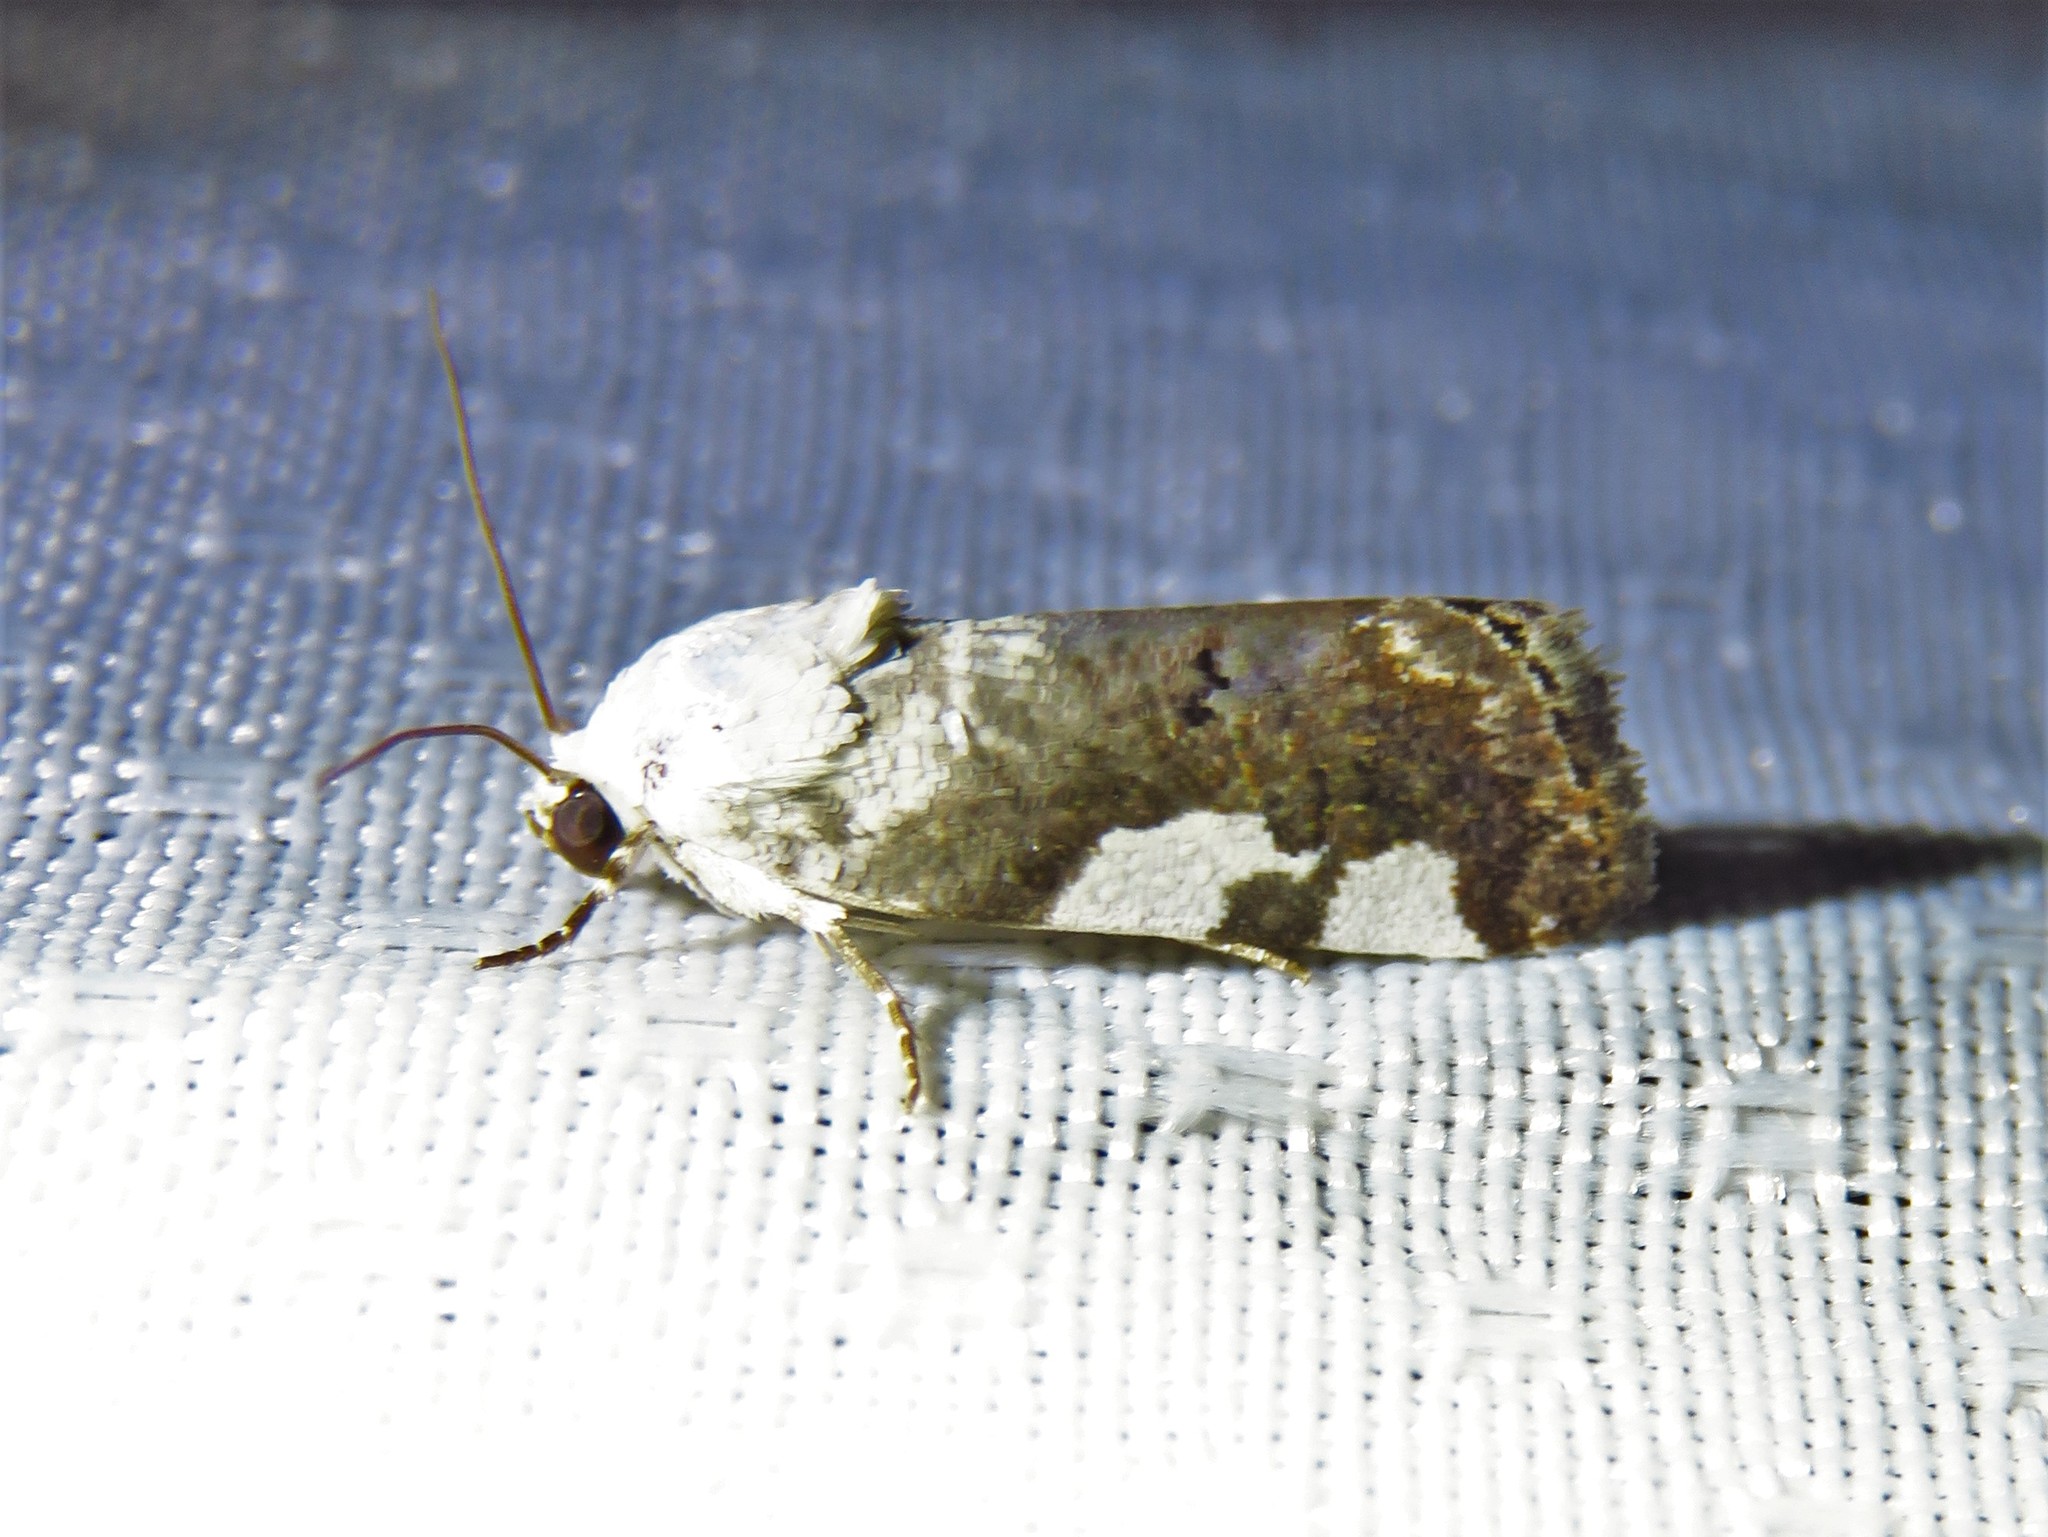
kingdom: Animalia
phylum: Arthropoda
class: Insecta
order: Lepidoptera
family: Noctuidae
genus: Acontia
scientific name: Acontia quadriplaga
